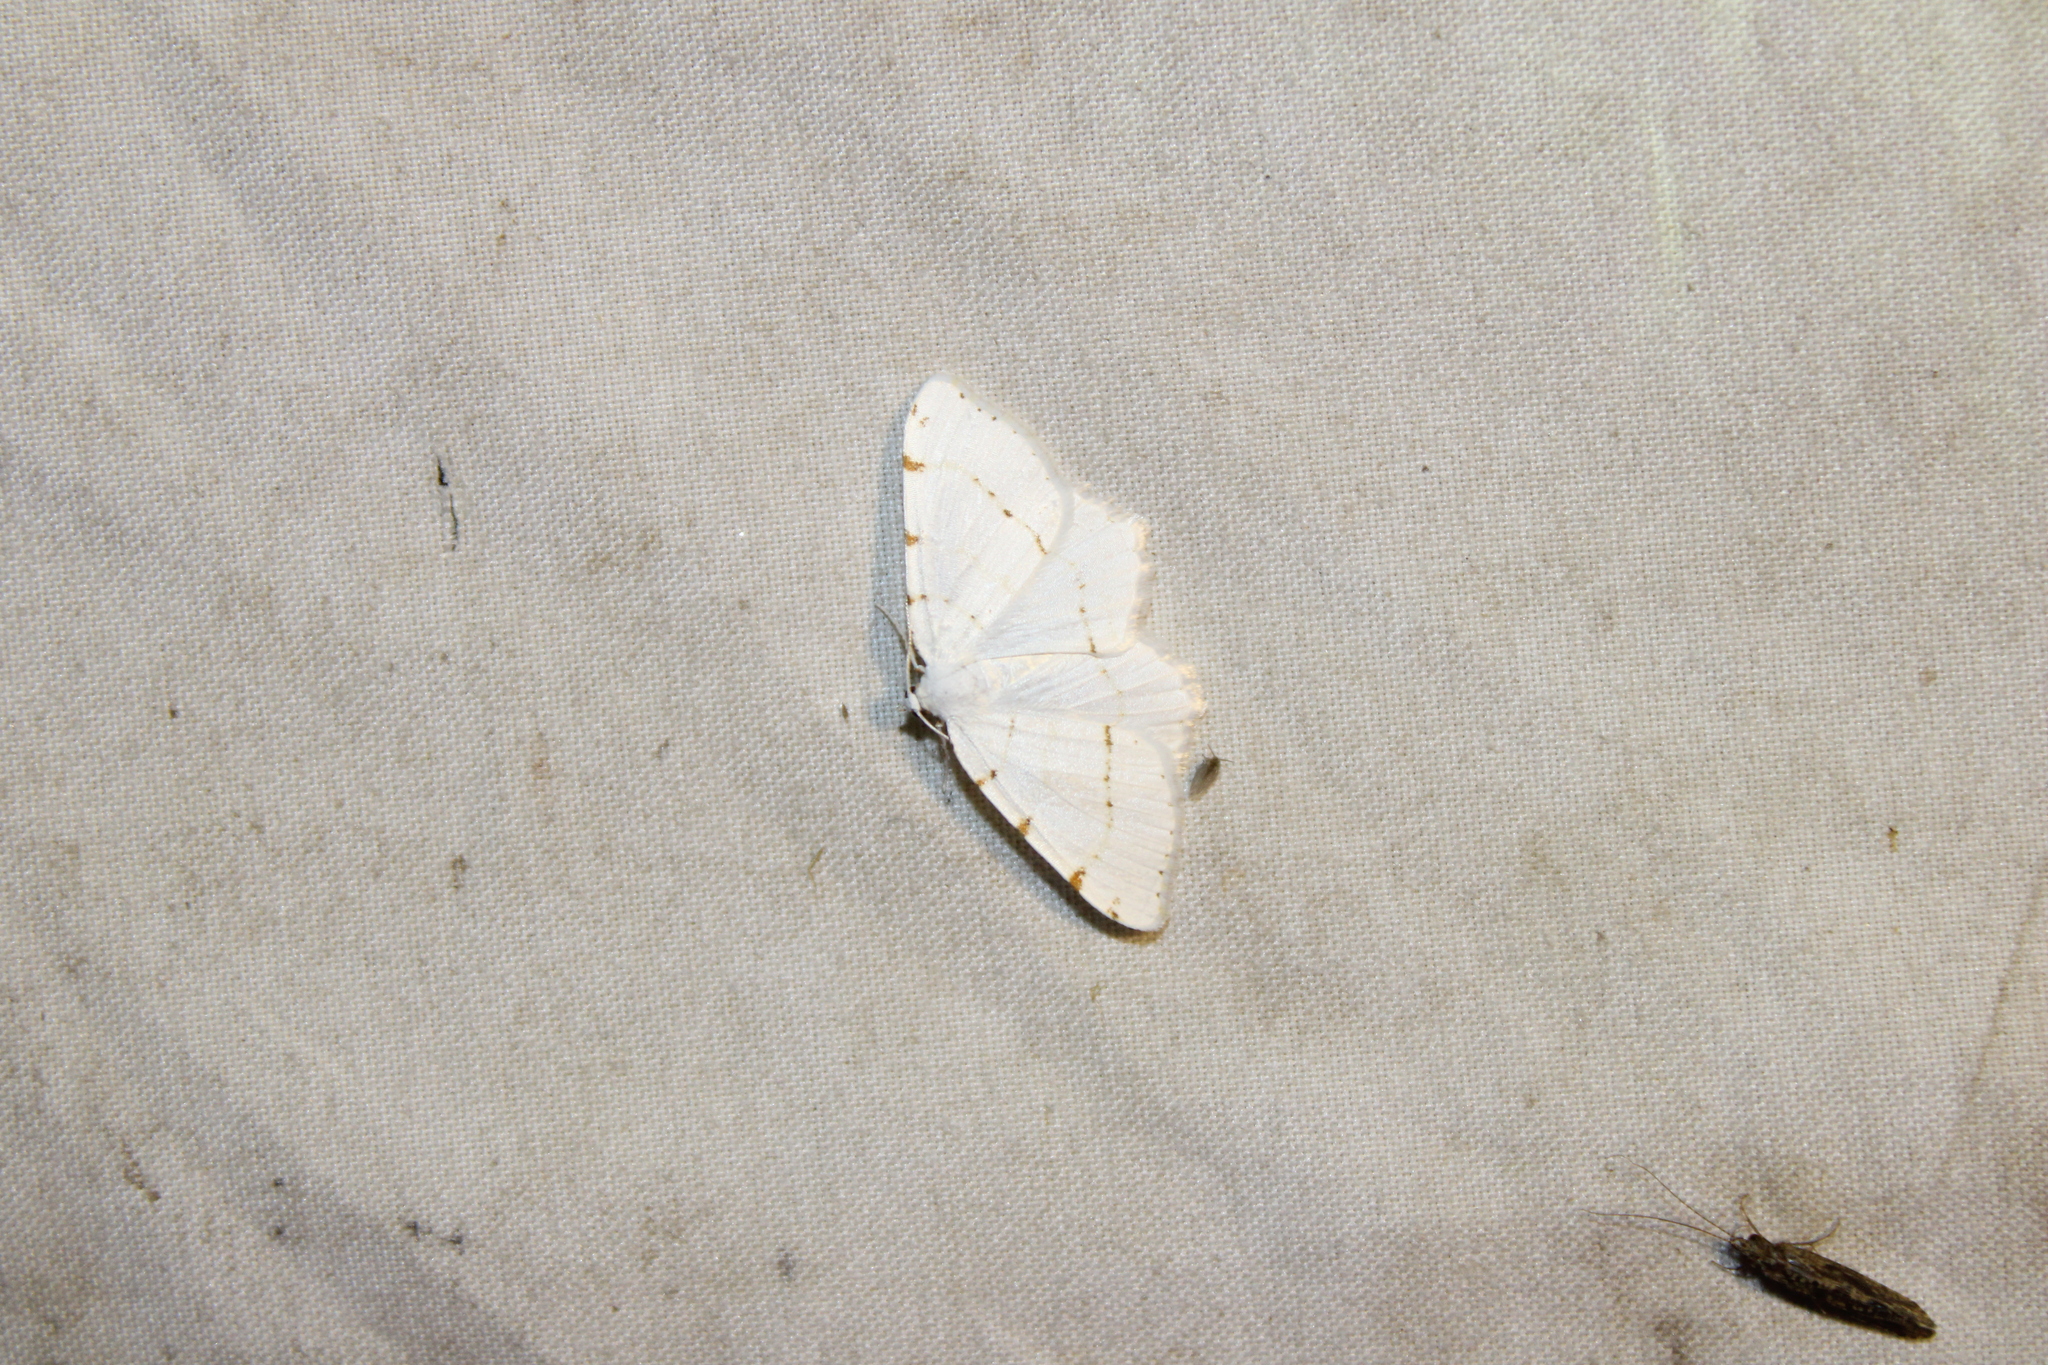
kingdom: Animalia
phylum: Arthropoda
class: Insecta
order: Lepidoptera
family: Geometridae
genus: Macaria
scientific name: Macaria pustularia
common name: Lesser maple spanworm moth
